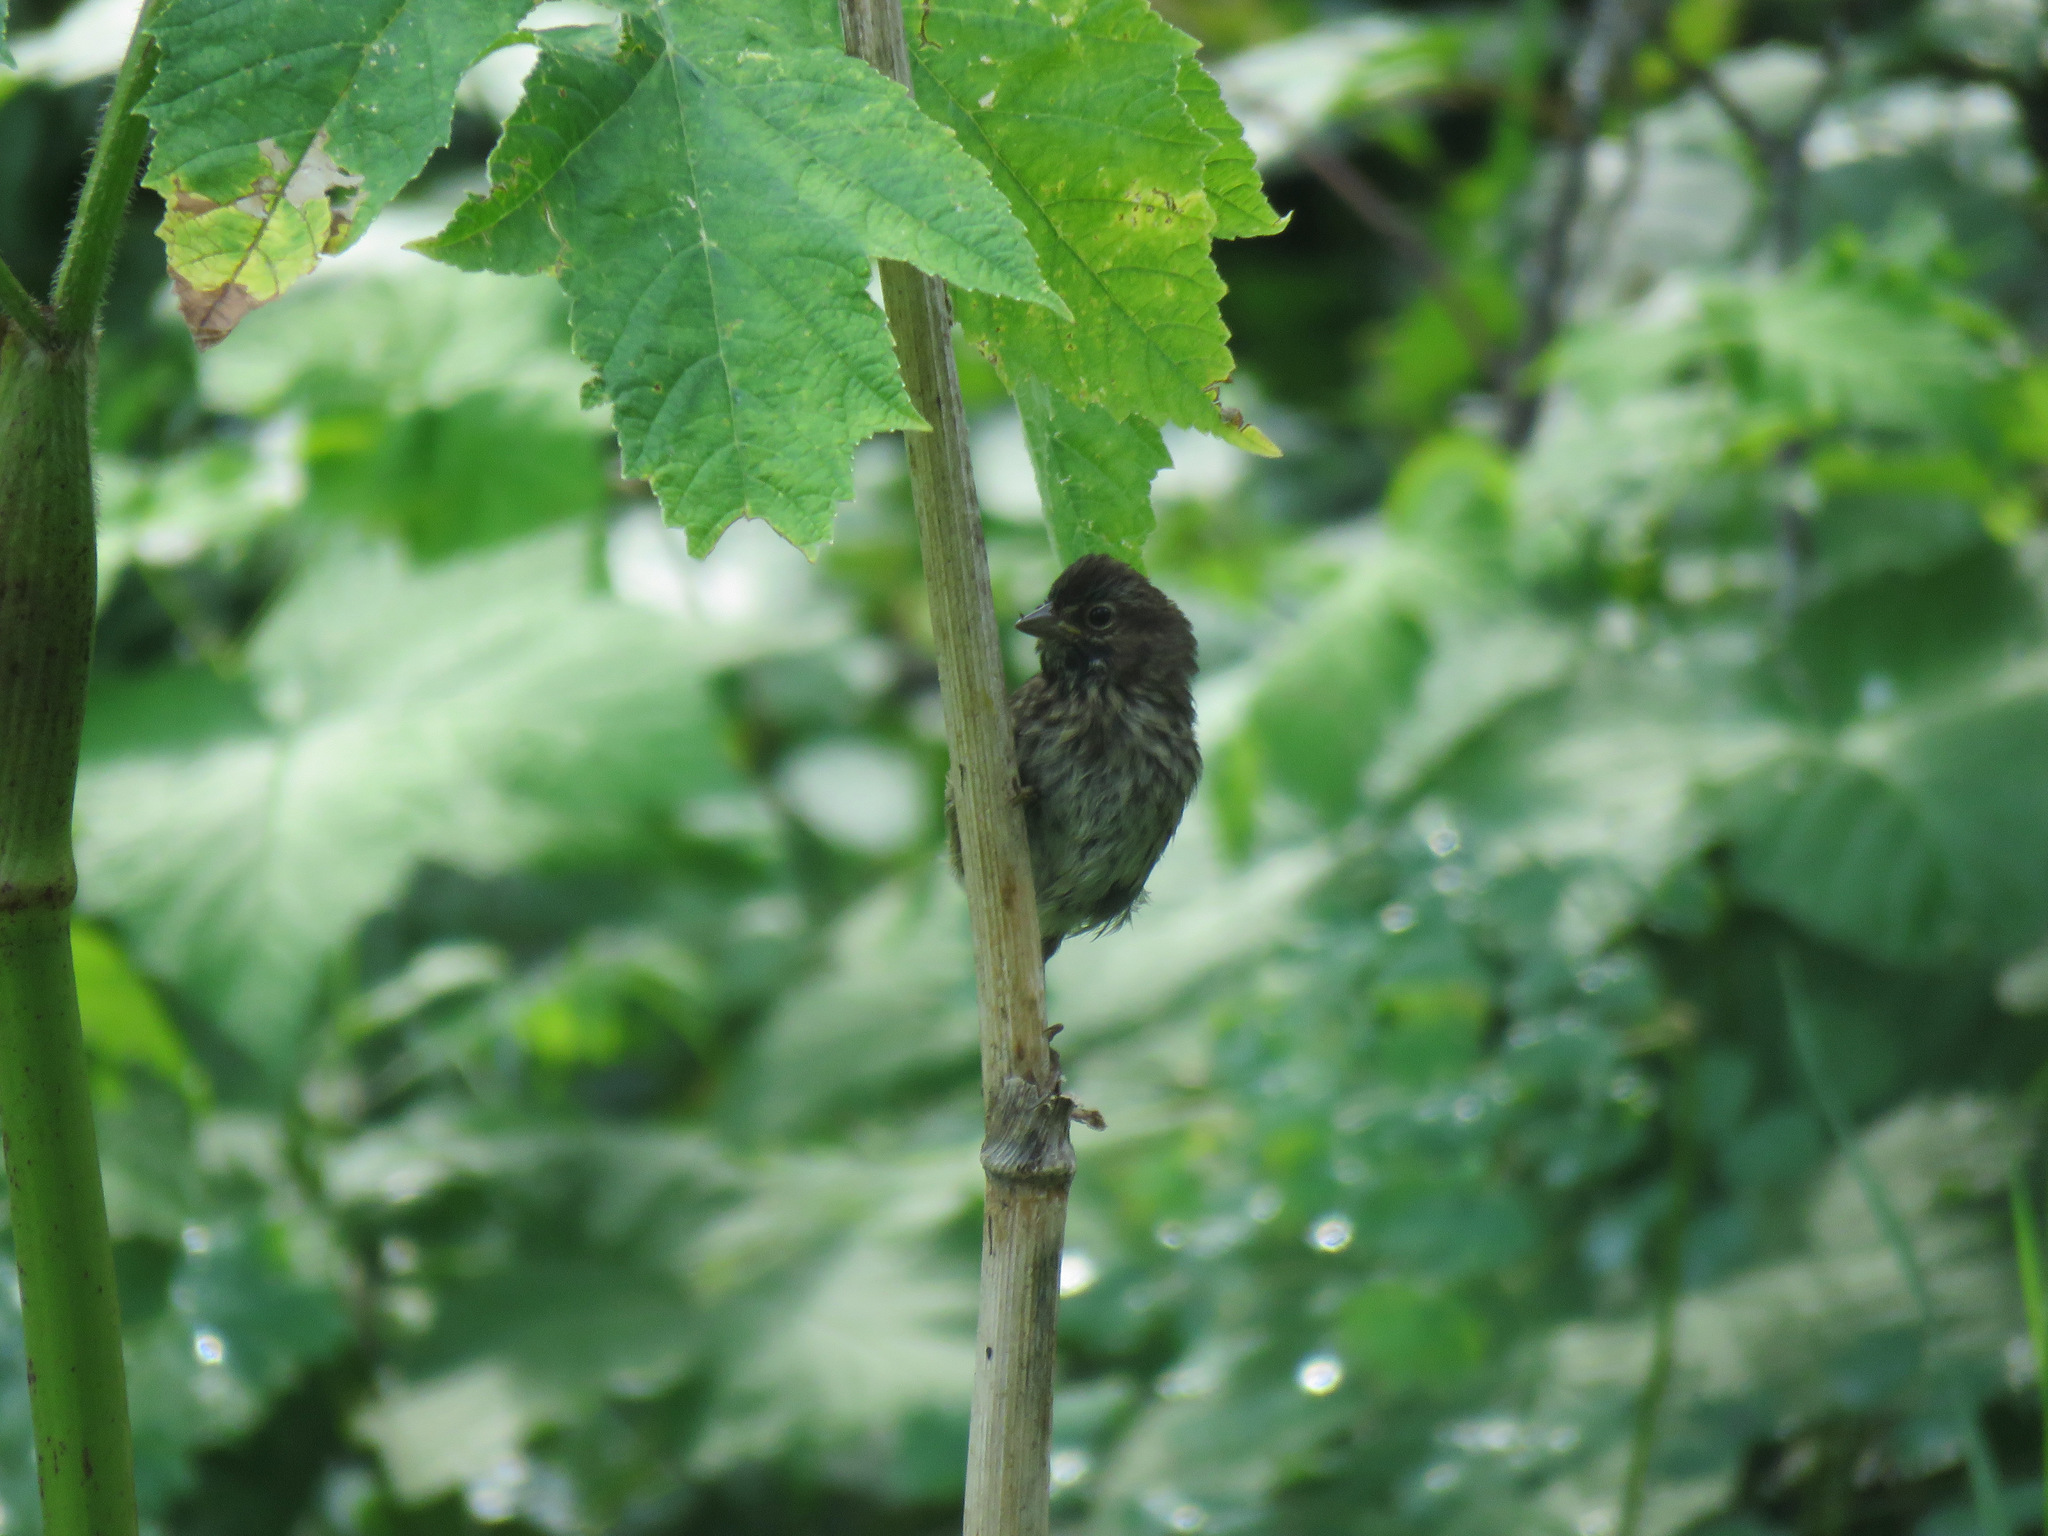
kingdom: Animalia
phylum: Chordata
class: Aves
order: Passeriformes
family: Passerellidae
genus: Melospiza
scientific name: Melospiza melodia
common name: Song sparrow
